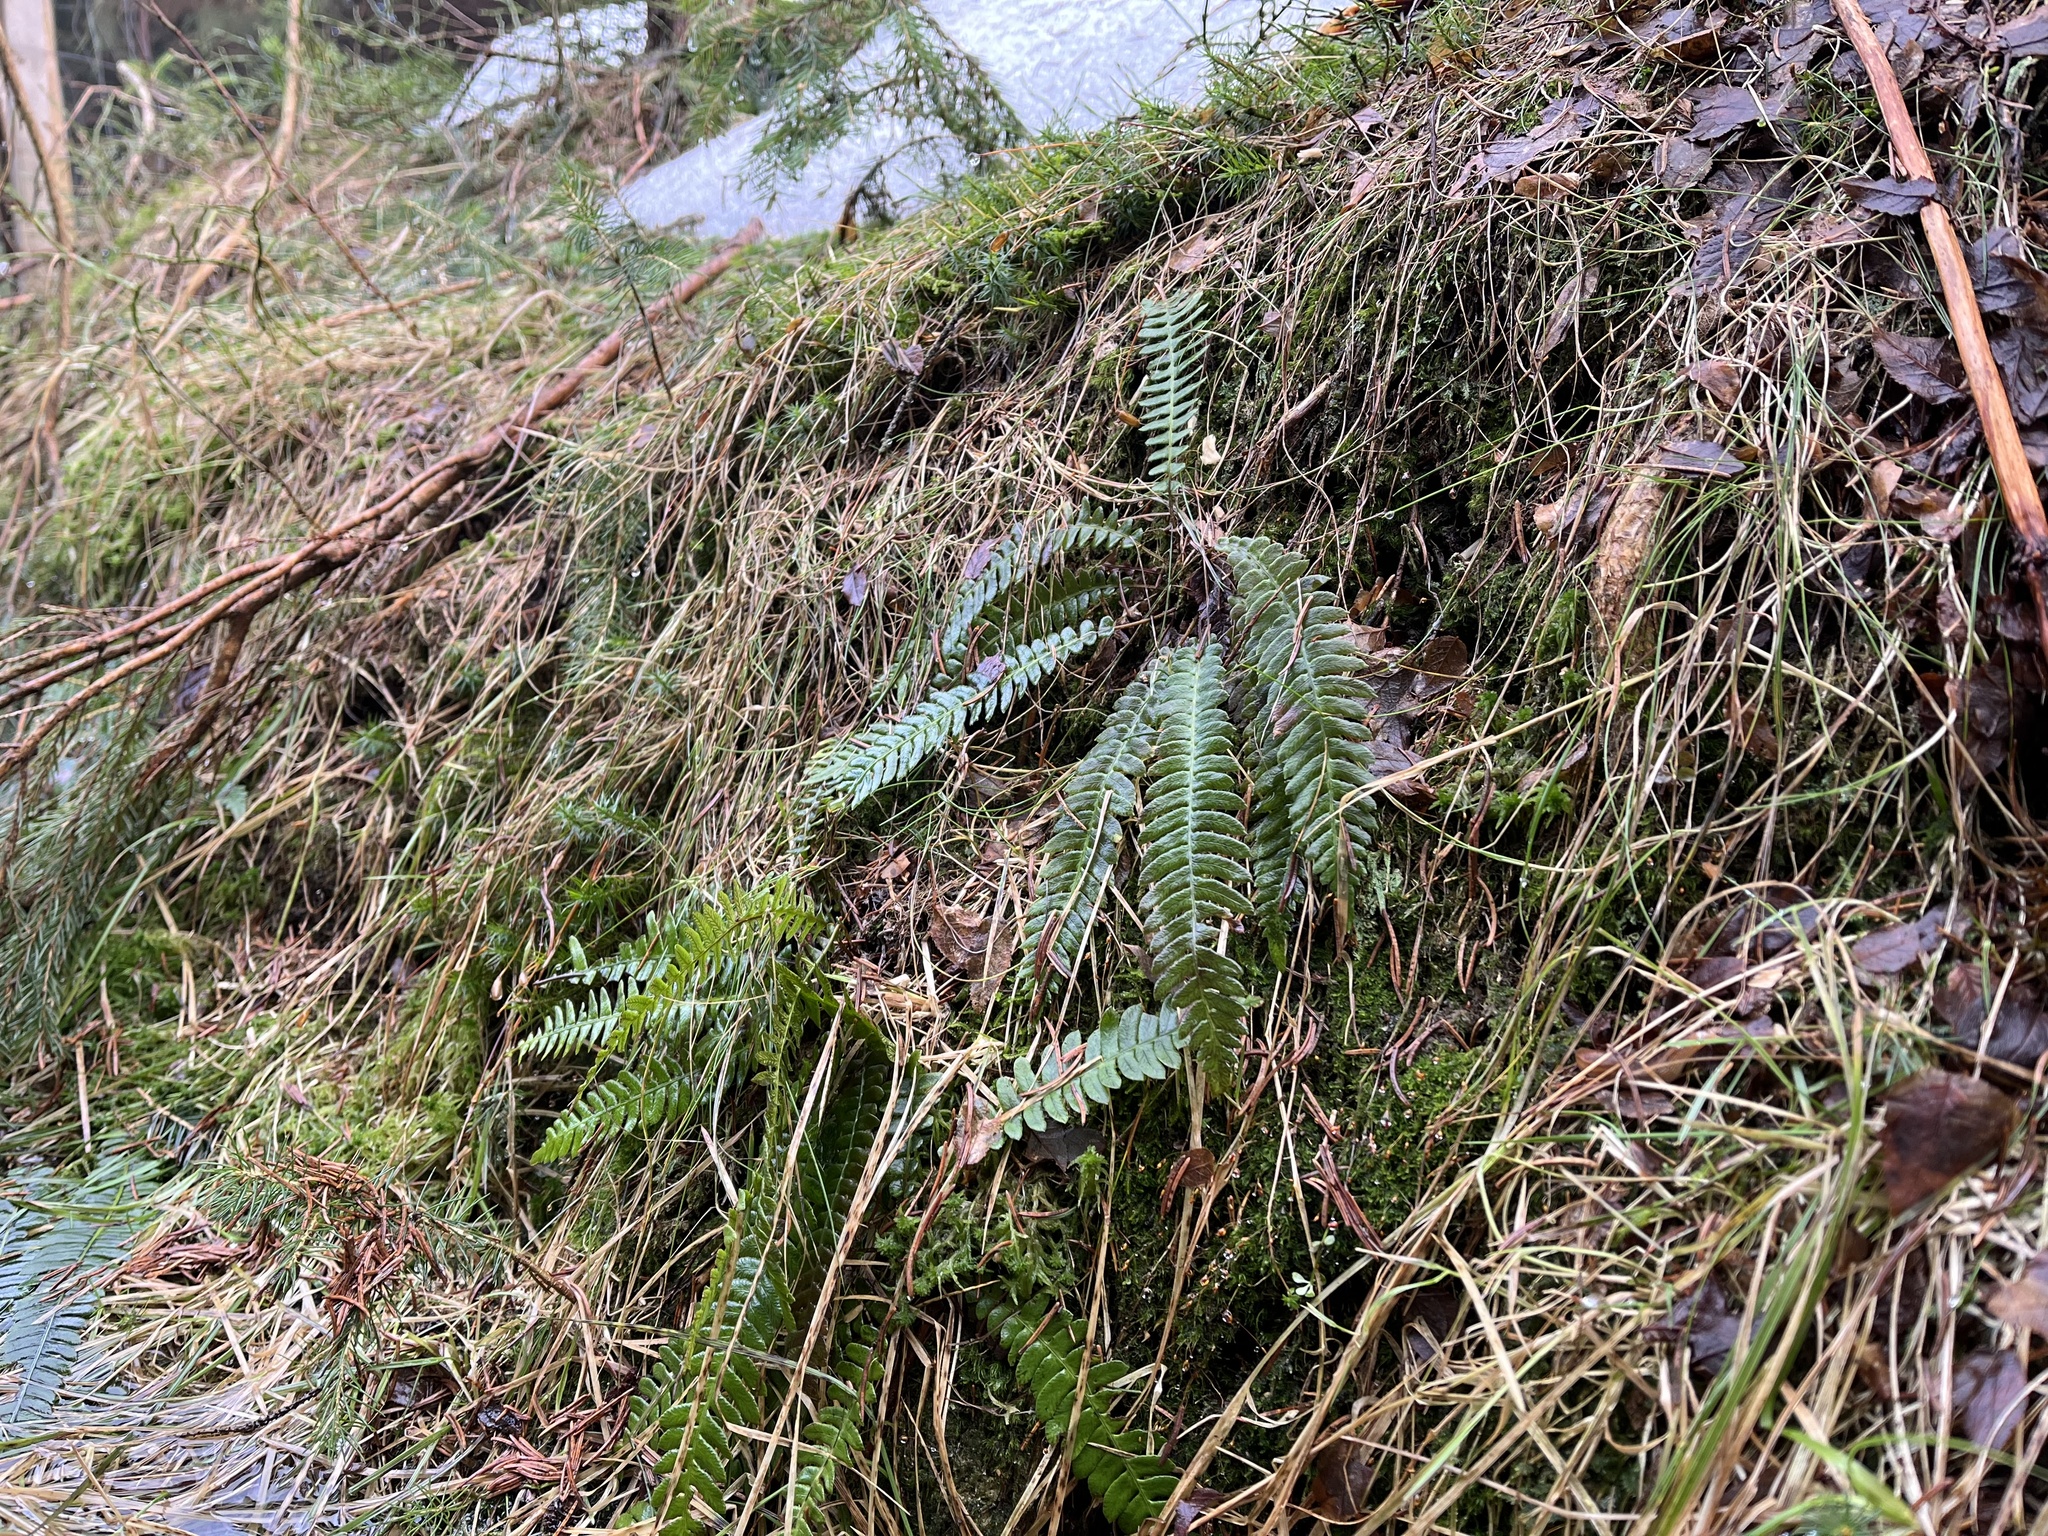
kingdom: Plantae
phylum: Tracheophyta
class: Polypodiopsida
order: Polypodiales
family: Blechnaceae
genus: Struthiopteris
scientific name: Struthiopteris spicant
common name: Deer fern
